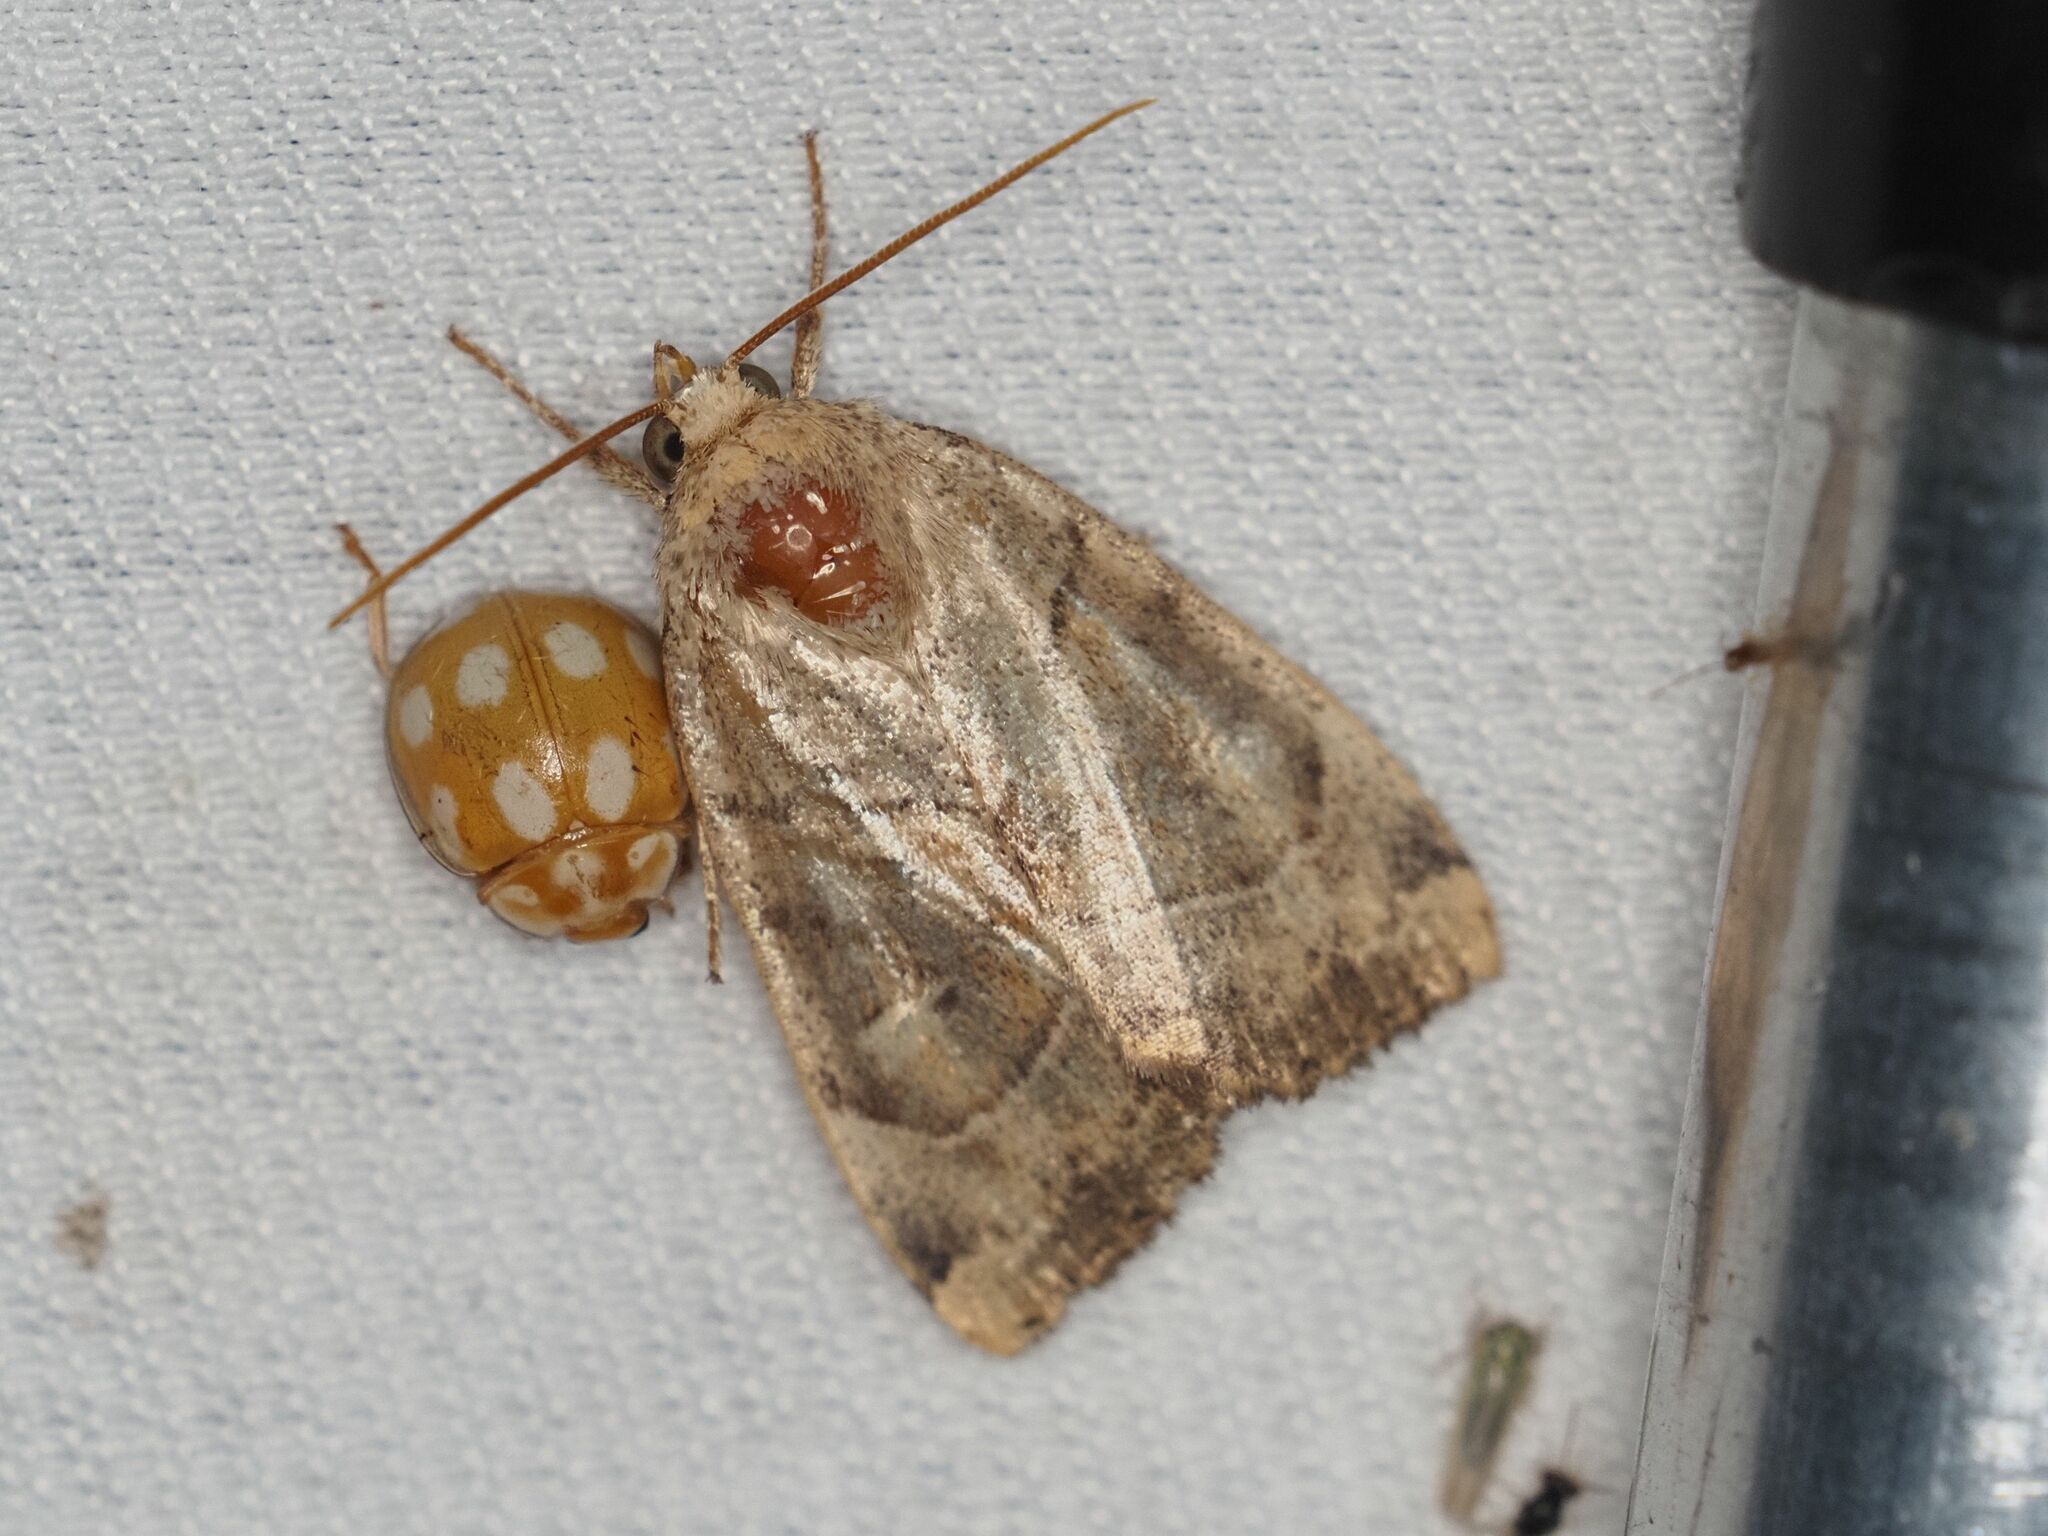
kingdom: Animalia
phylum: Arthropoda
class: Insecta
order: Lepidoptera
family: Noctuidae
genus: Cosmia
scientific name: Cosmia trapezina
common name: Dun-bar
